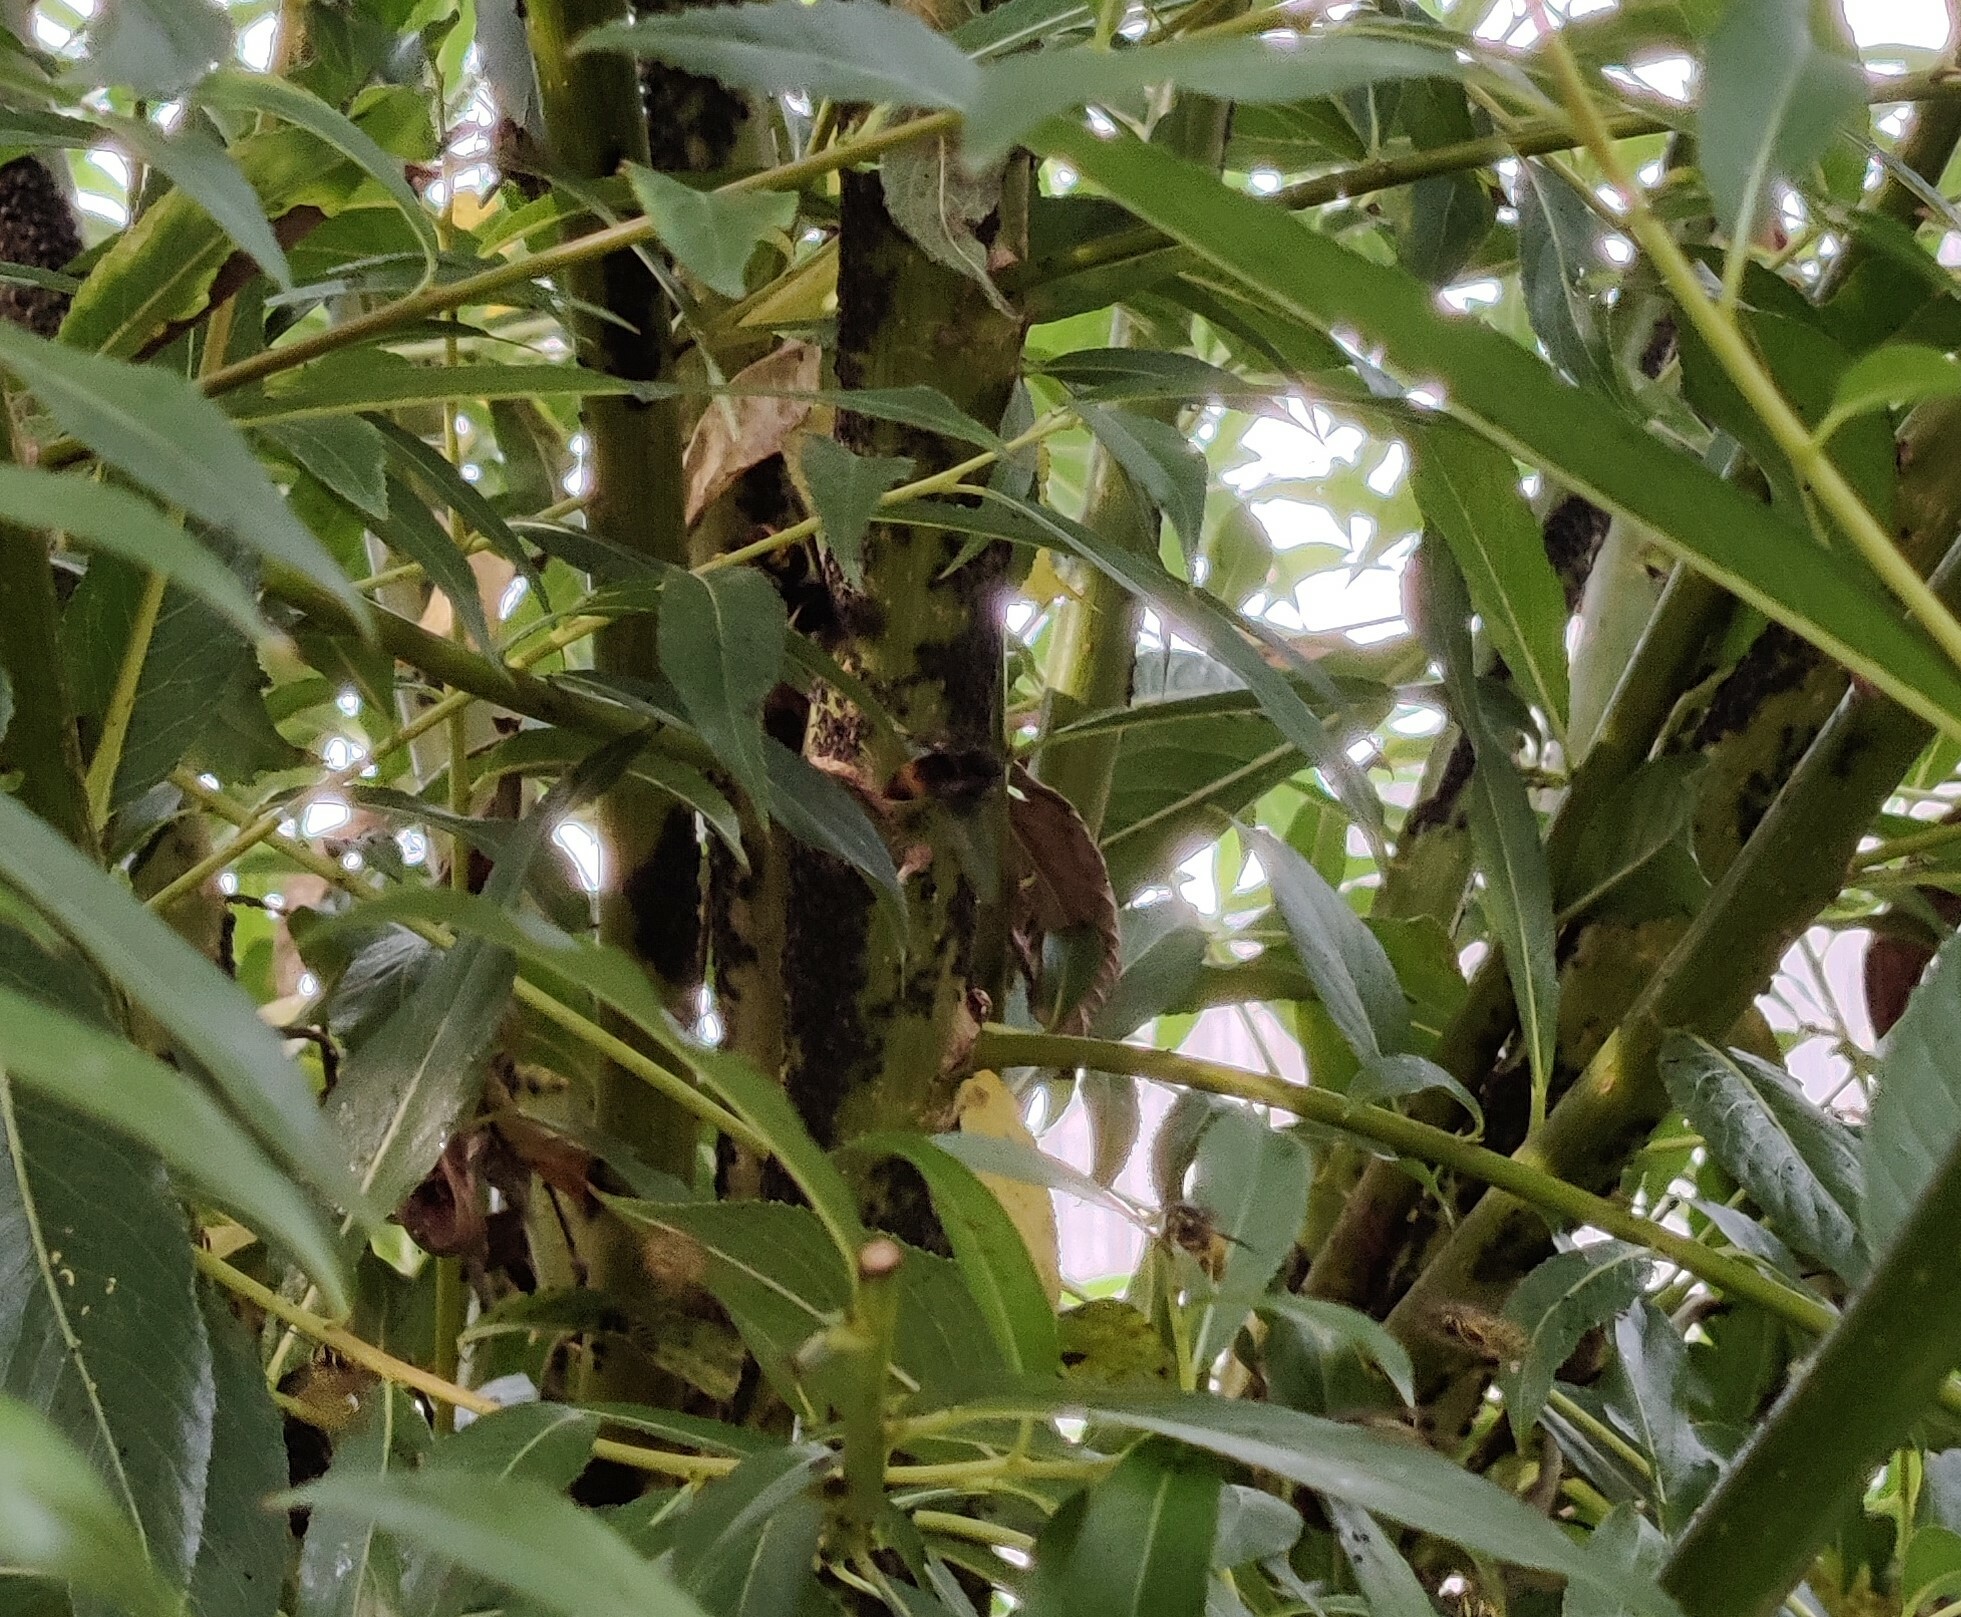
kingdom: Animalia
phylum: Arthropoda
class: Insecta
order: Hymenoptera
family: Vespidae
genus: Vespa
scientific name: Vespa velutina
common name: Asian hornet
